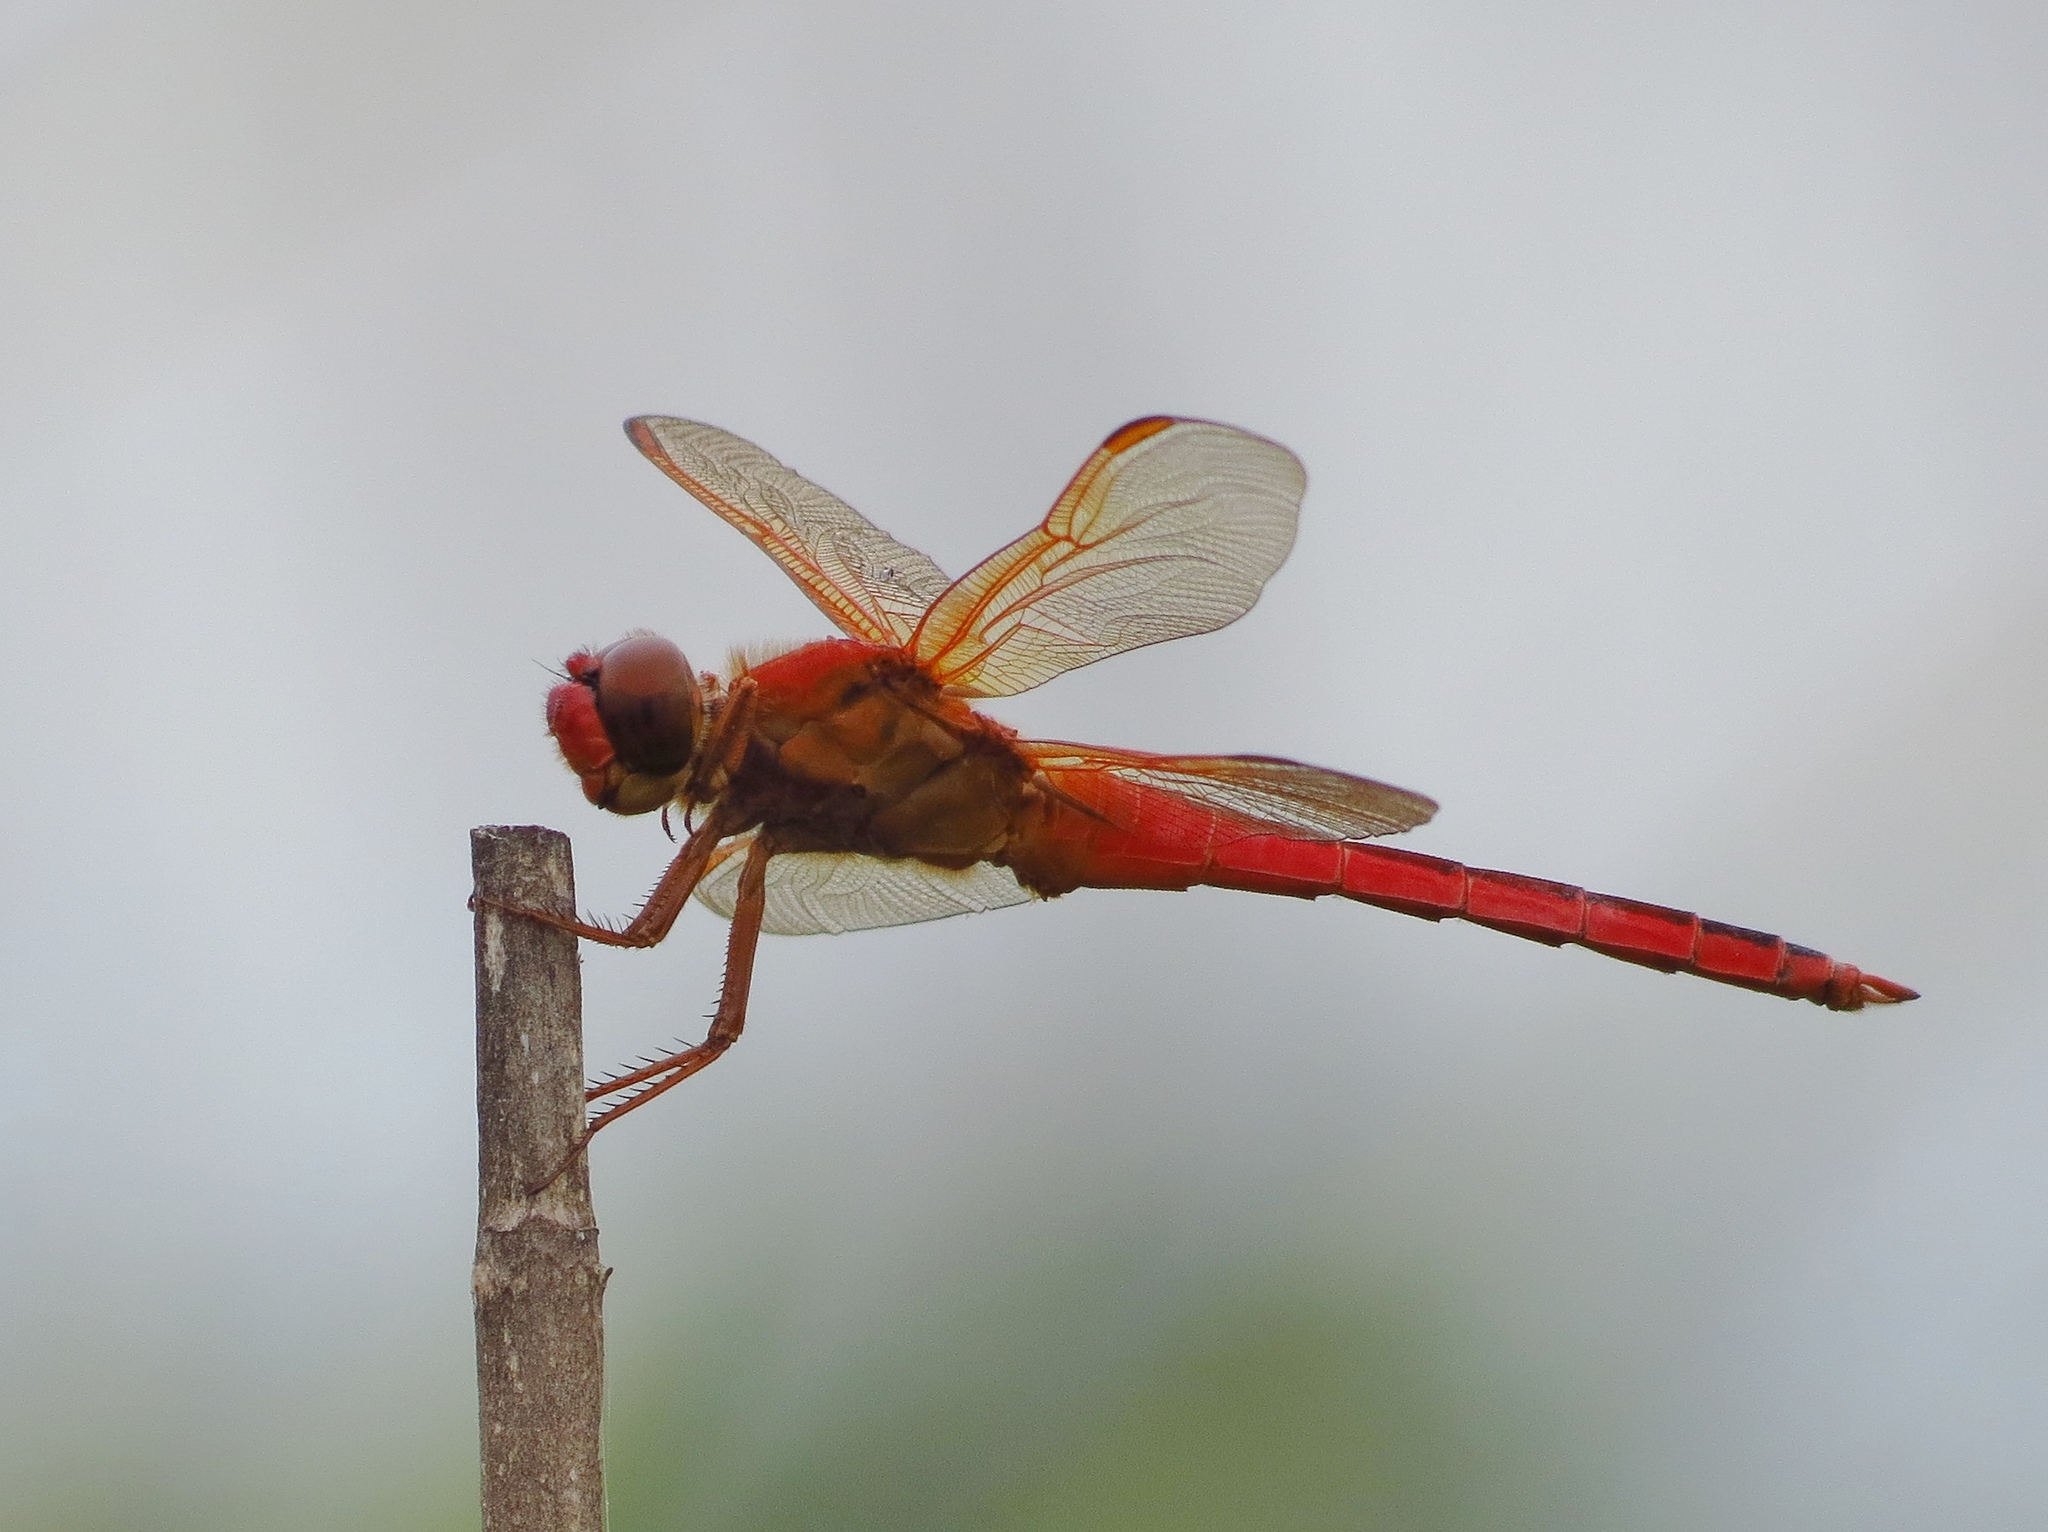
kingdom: Animalia
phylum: Arthropoda
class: Insecta
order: Odonata
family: Libellulidae
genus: Libellula
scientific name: Libellula croceipennis
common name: Neon skimmer
